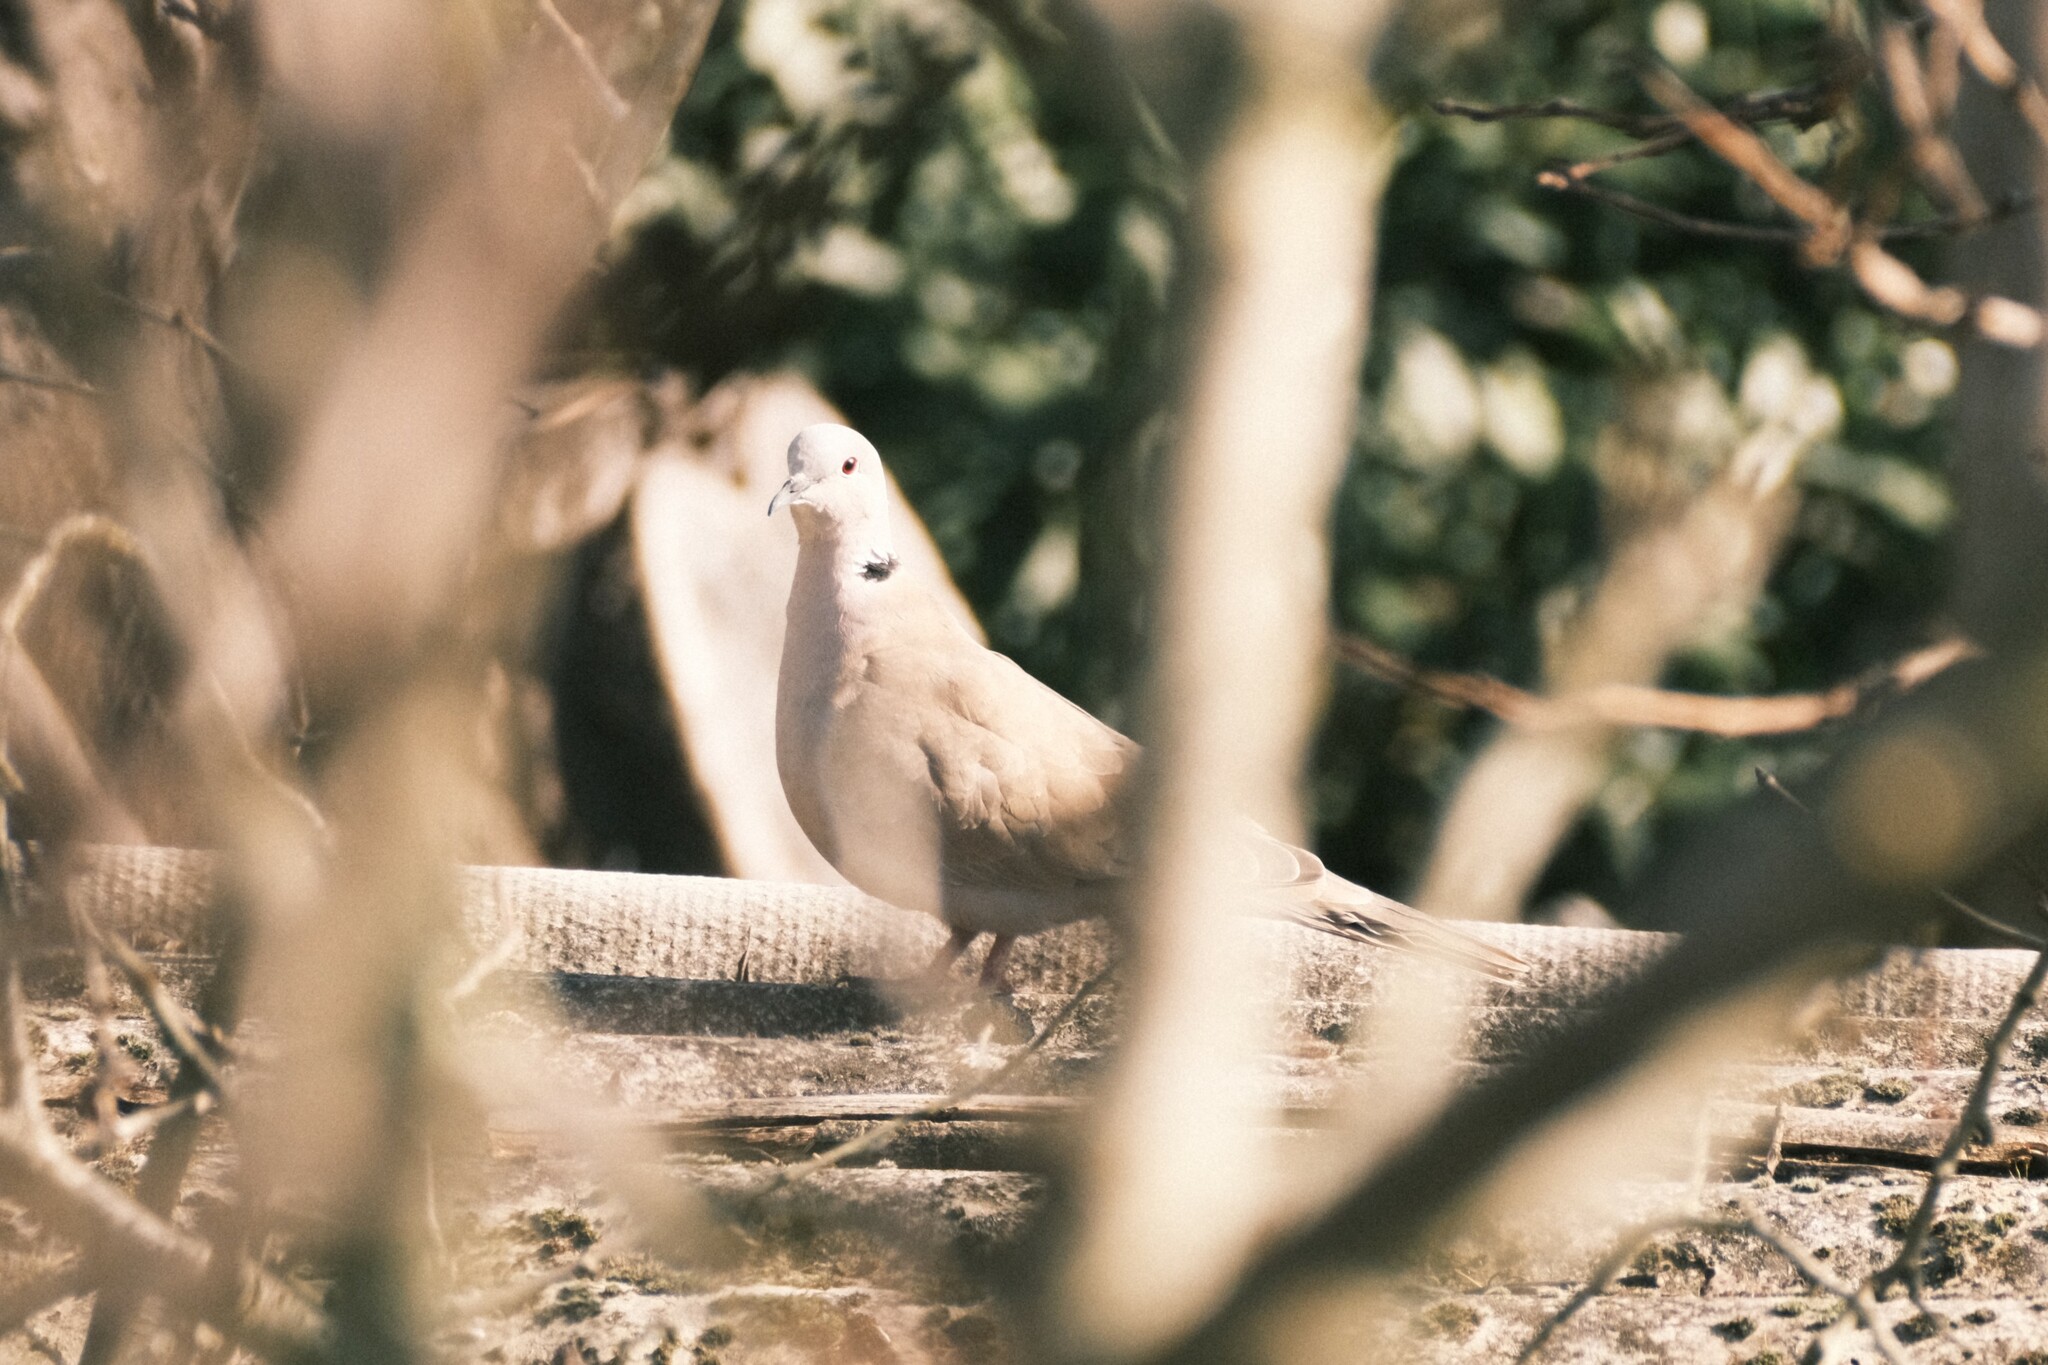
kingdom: Animalia
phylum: Chordata
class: Aves
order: Columbiformes
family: Columbidae
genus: Streptopelia
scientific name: Streptopelia decaocto
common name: Eurasian collared dove
